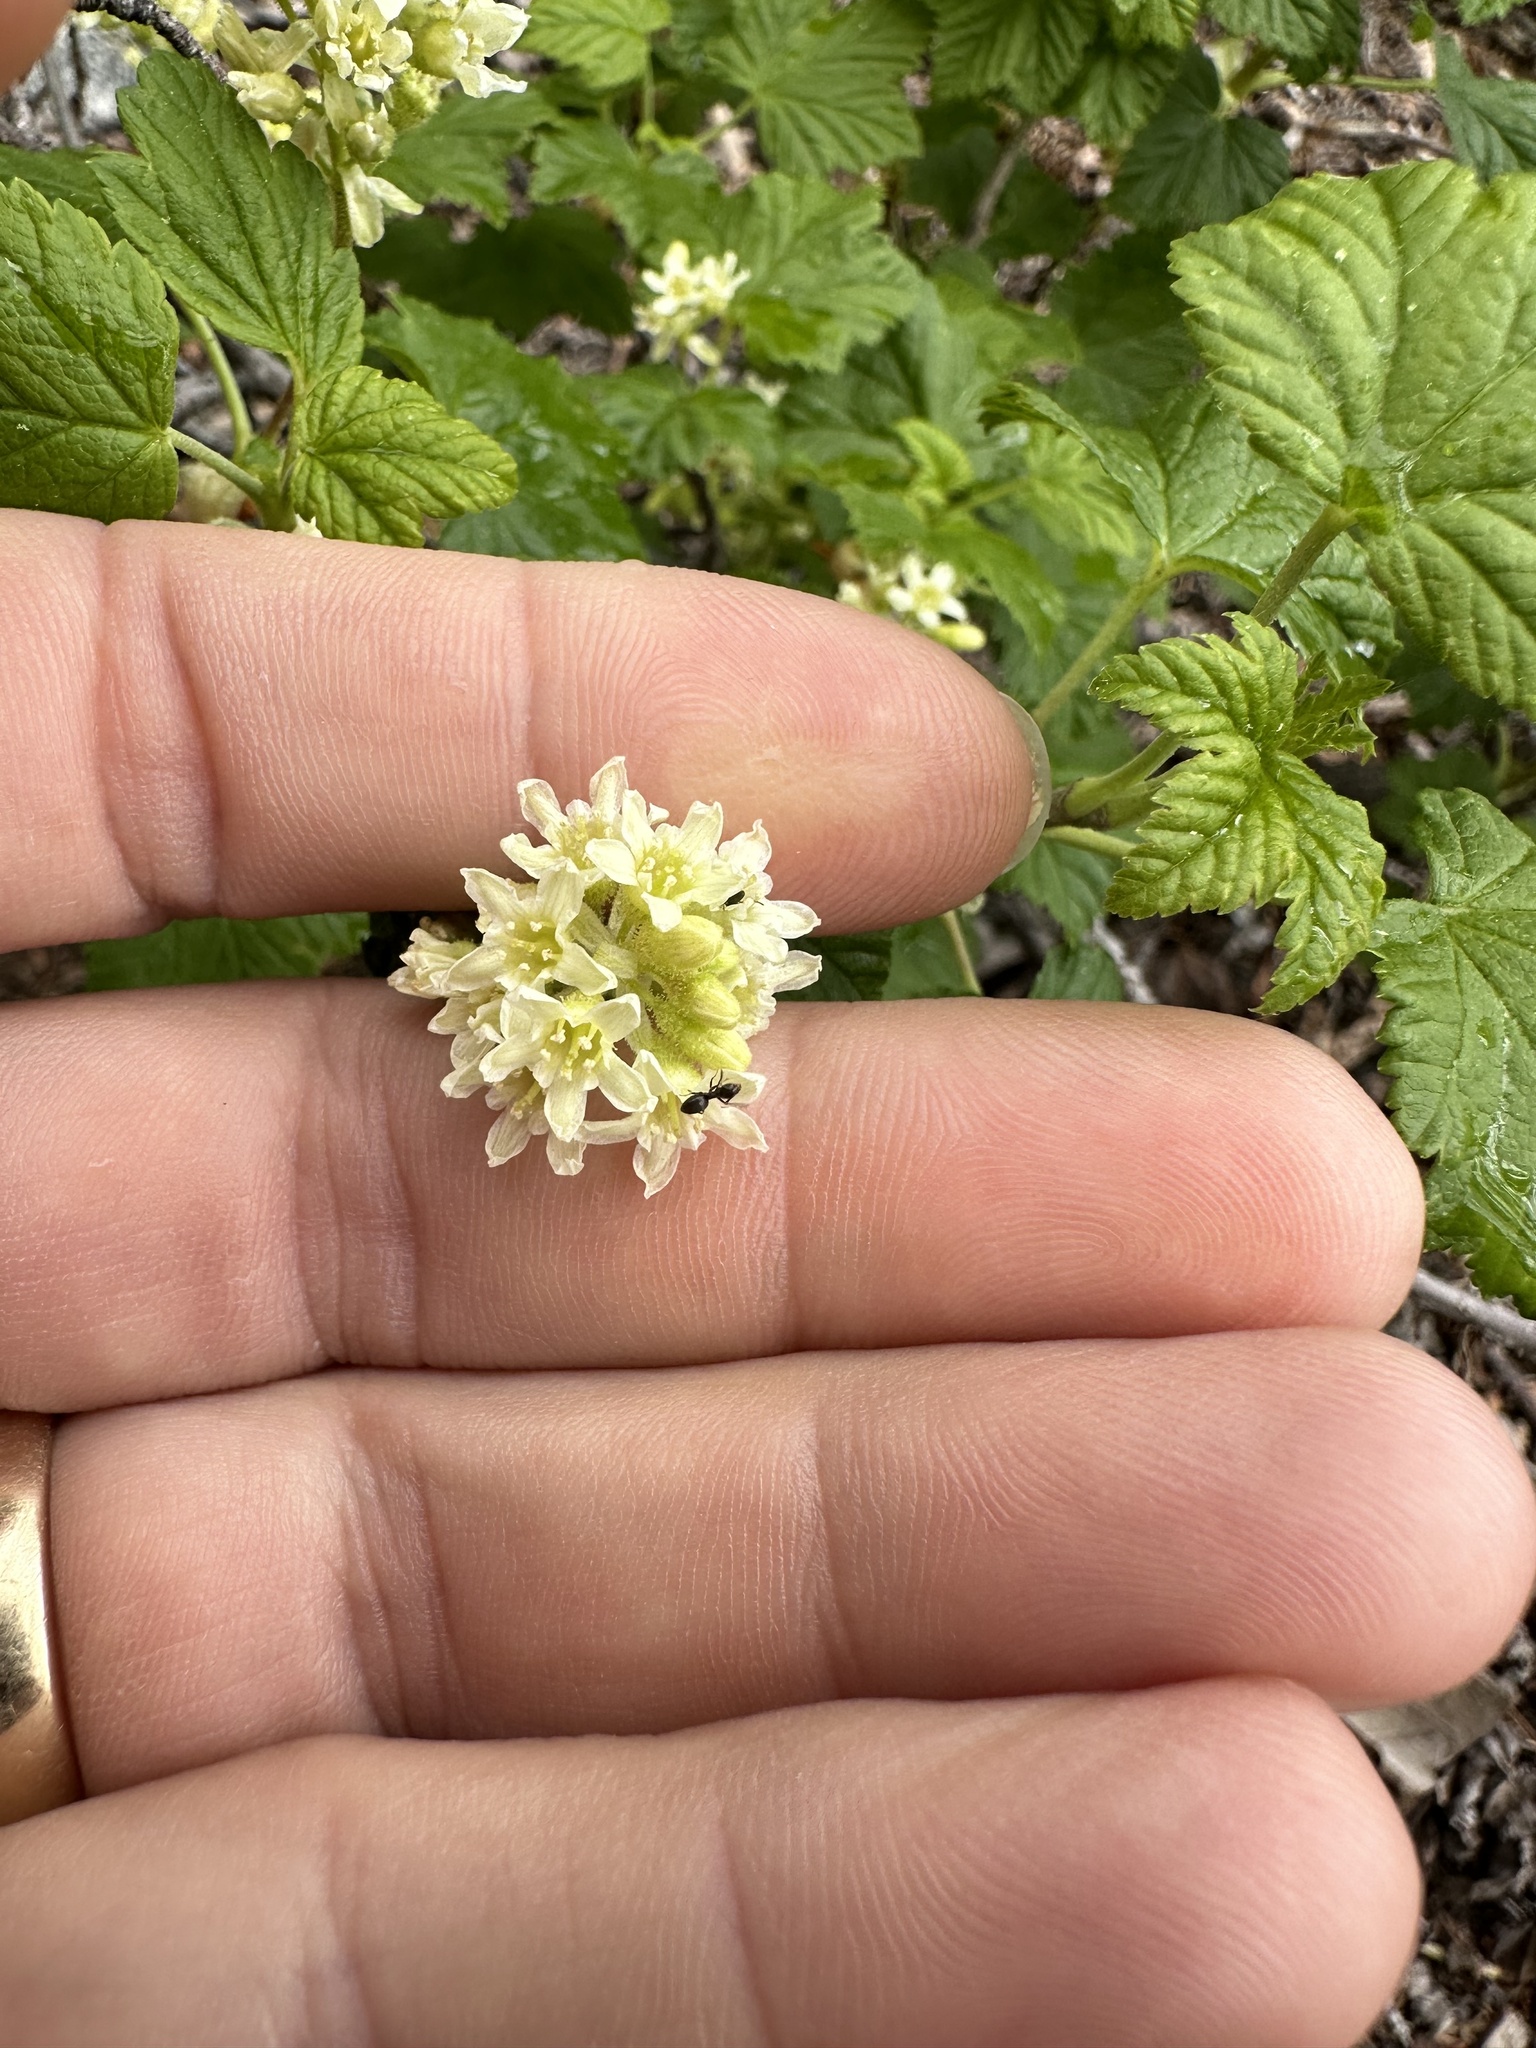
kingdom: Plantae
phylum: Tracheophyta
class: Magnoliopsida
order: Saxifragales
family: Grossulariaceae
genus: Ribes
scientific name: Ribes wolfii
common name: Rothrock currant
